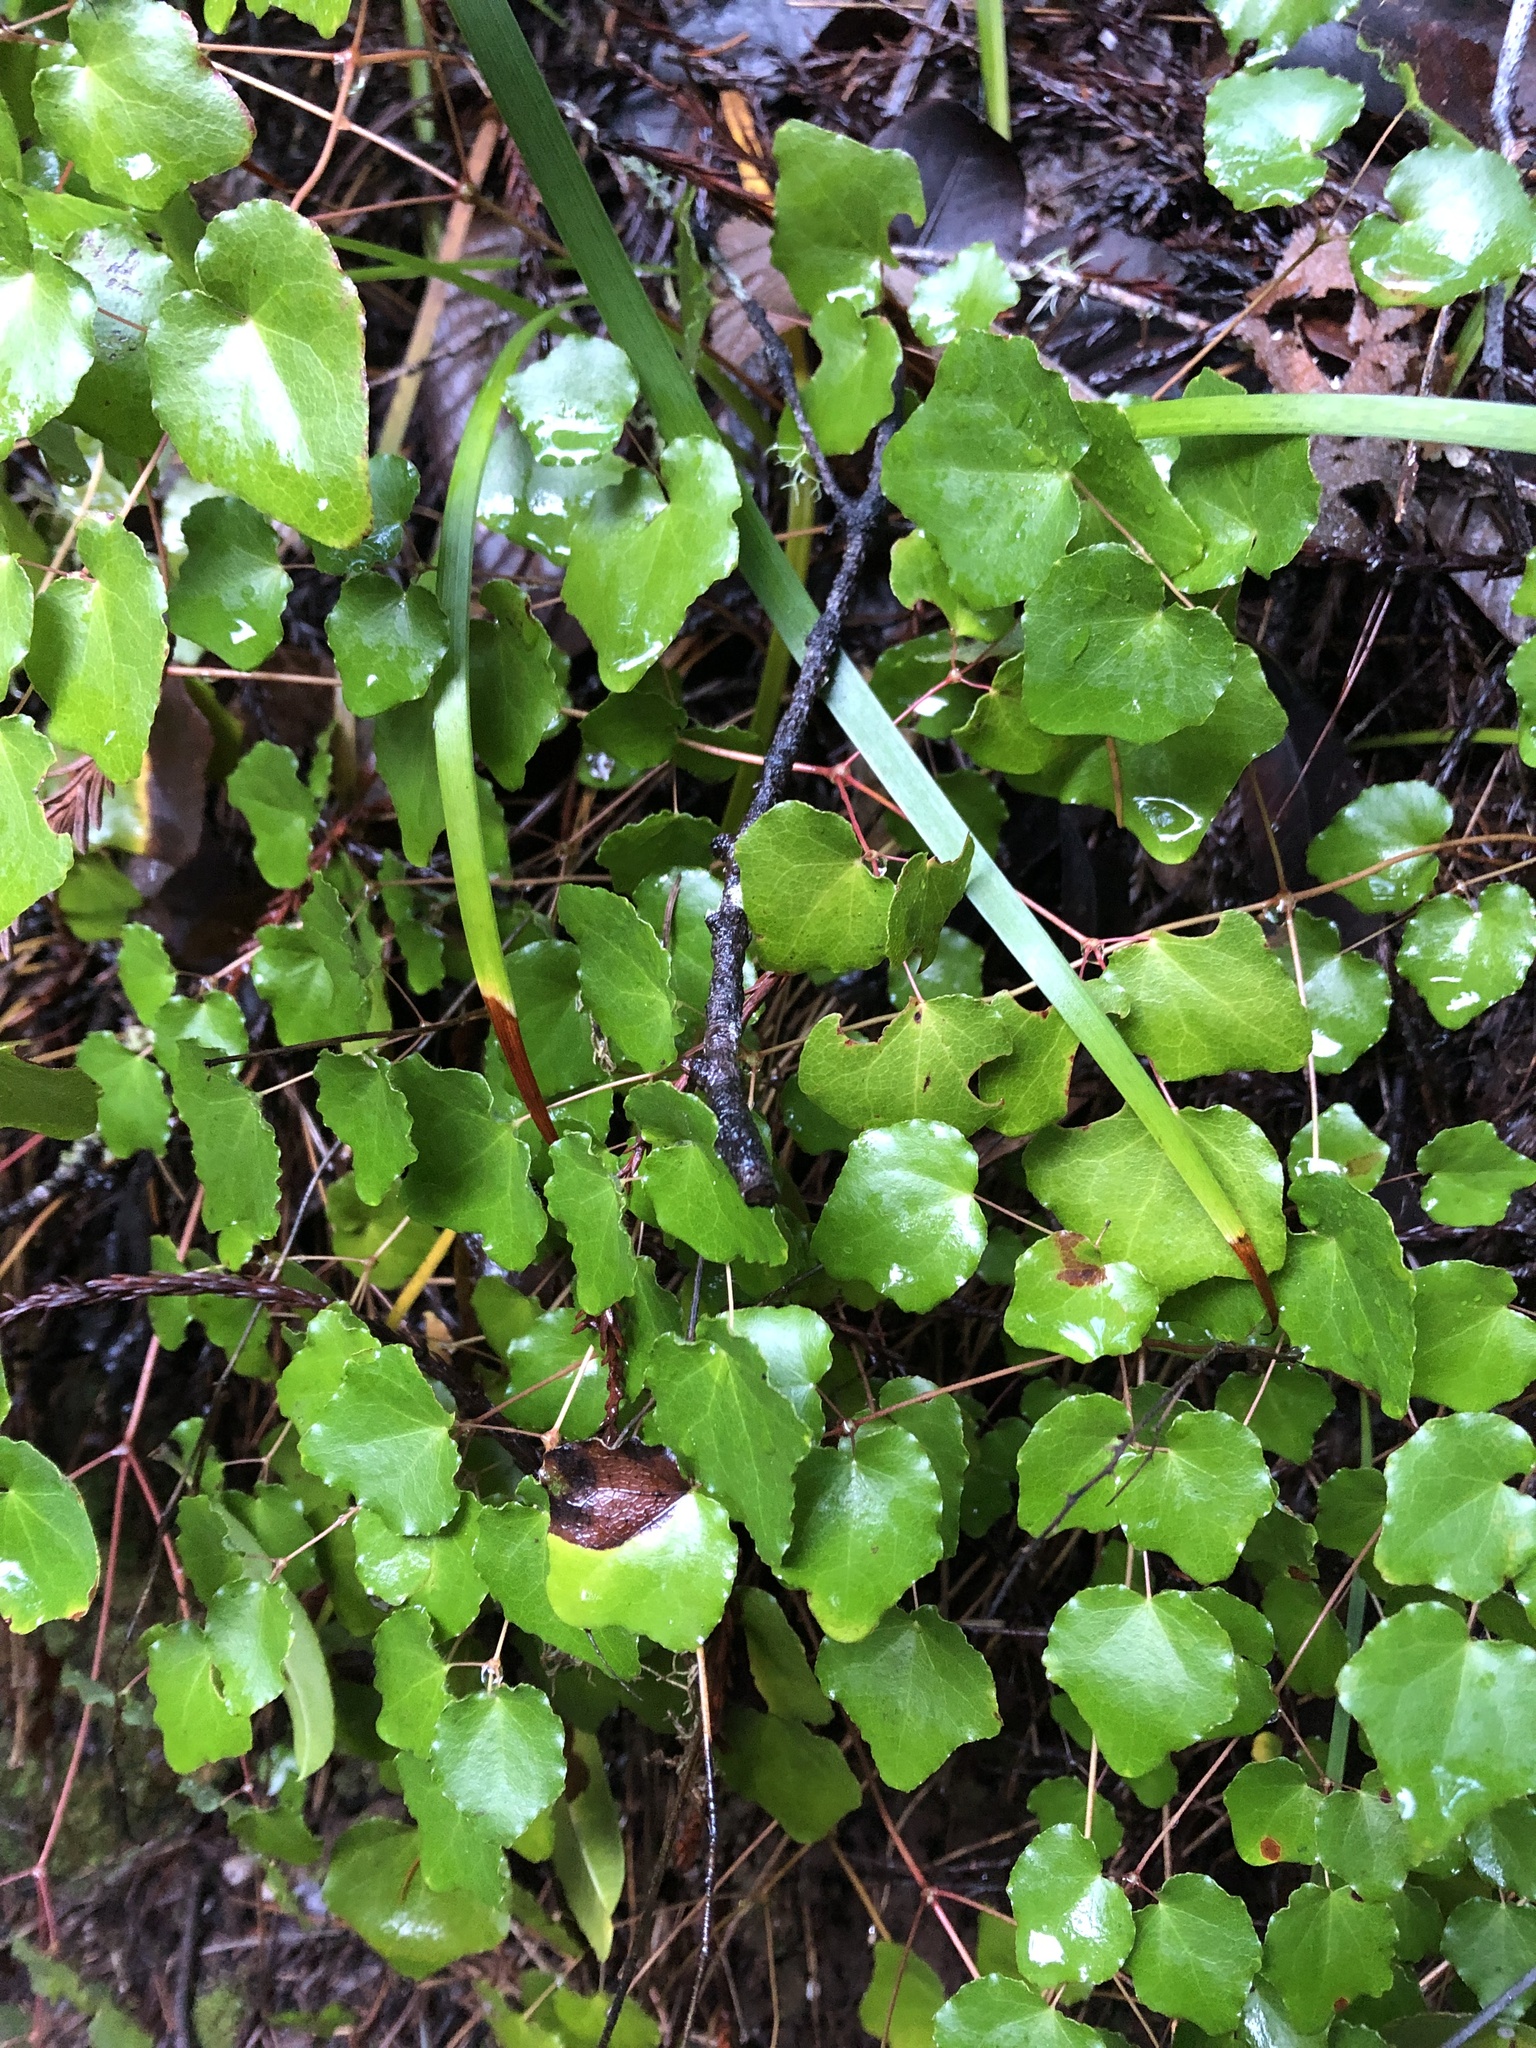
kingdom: Plantae
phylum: Tracheophyta
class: Magnoliopsida
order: Ranunculales
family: Berberidaceae
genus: Vancouveria
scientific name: Vancouveria planipetala
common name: Redwood-ivy
